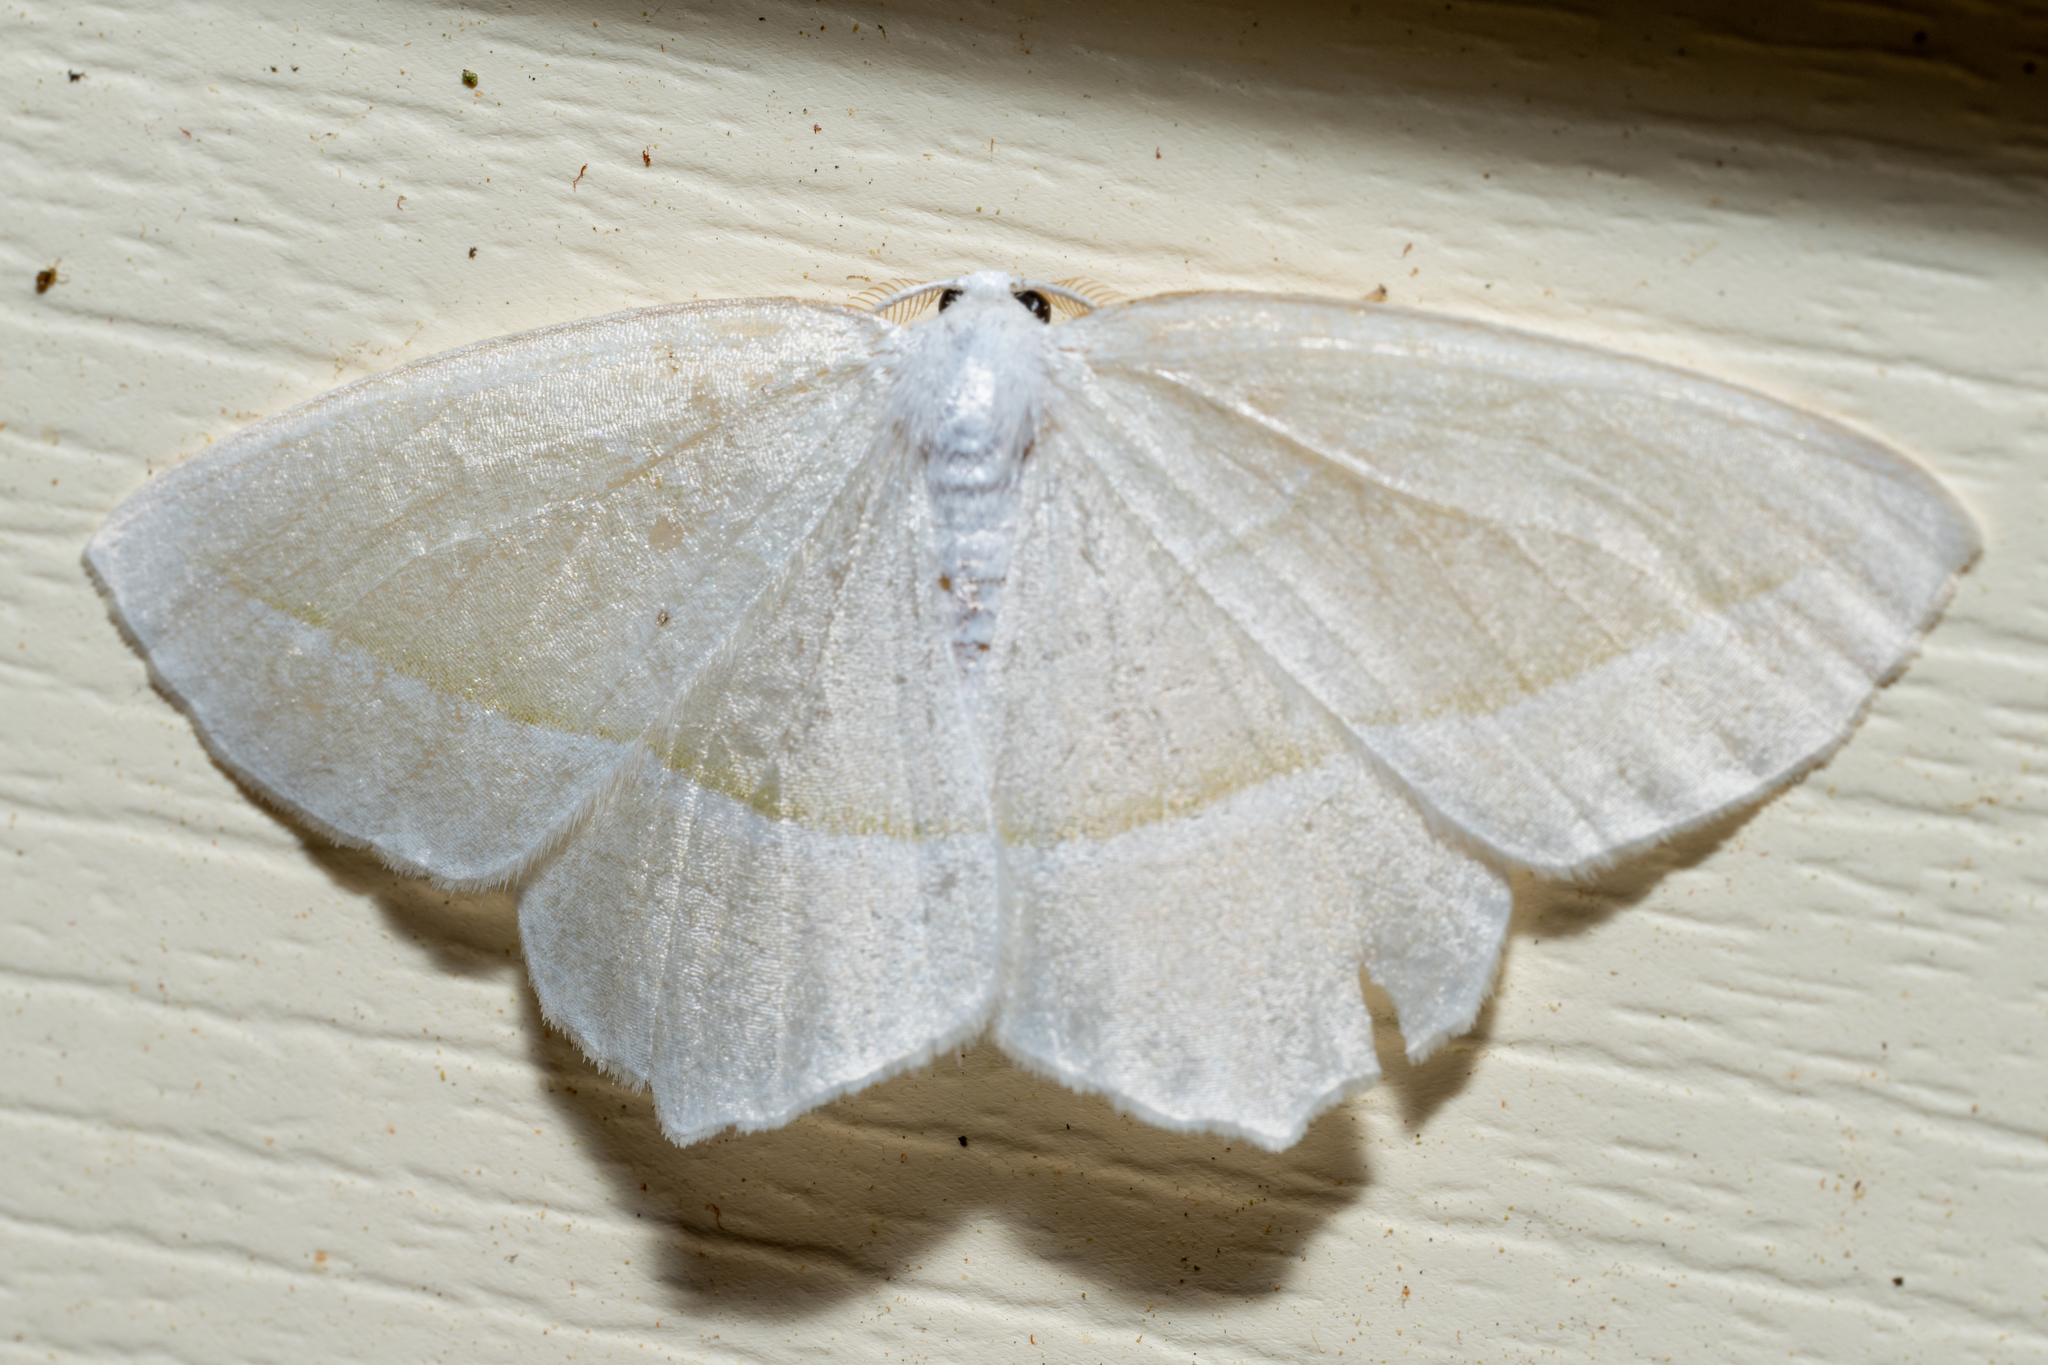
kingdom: Animalia
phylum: Arthropoda
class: Insecta
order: Lepidoptera
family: Geometridae
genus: Campaea
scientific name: Campaea perlata
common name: Fringed looper
